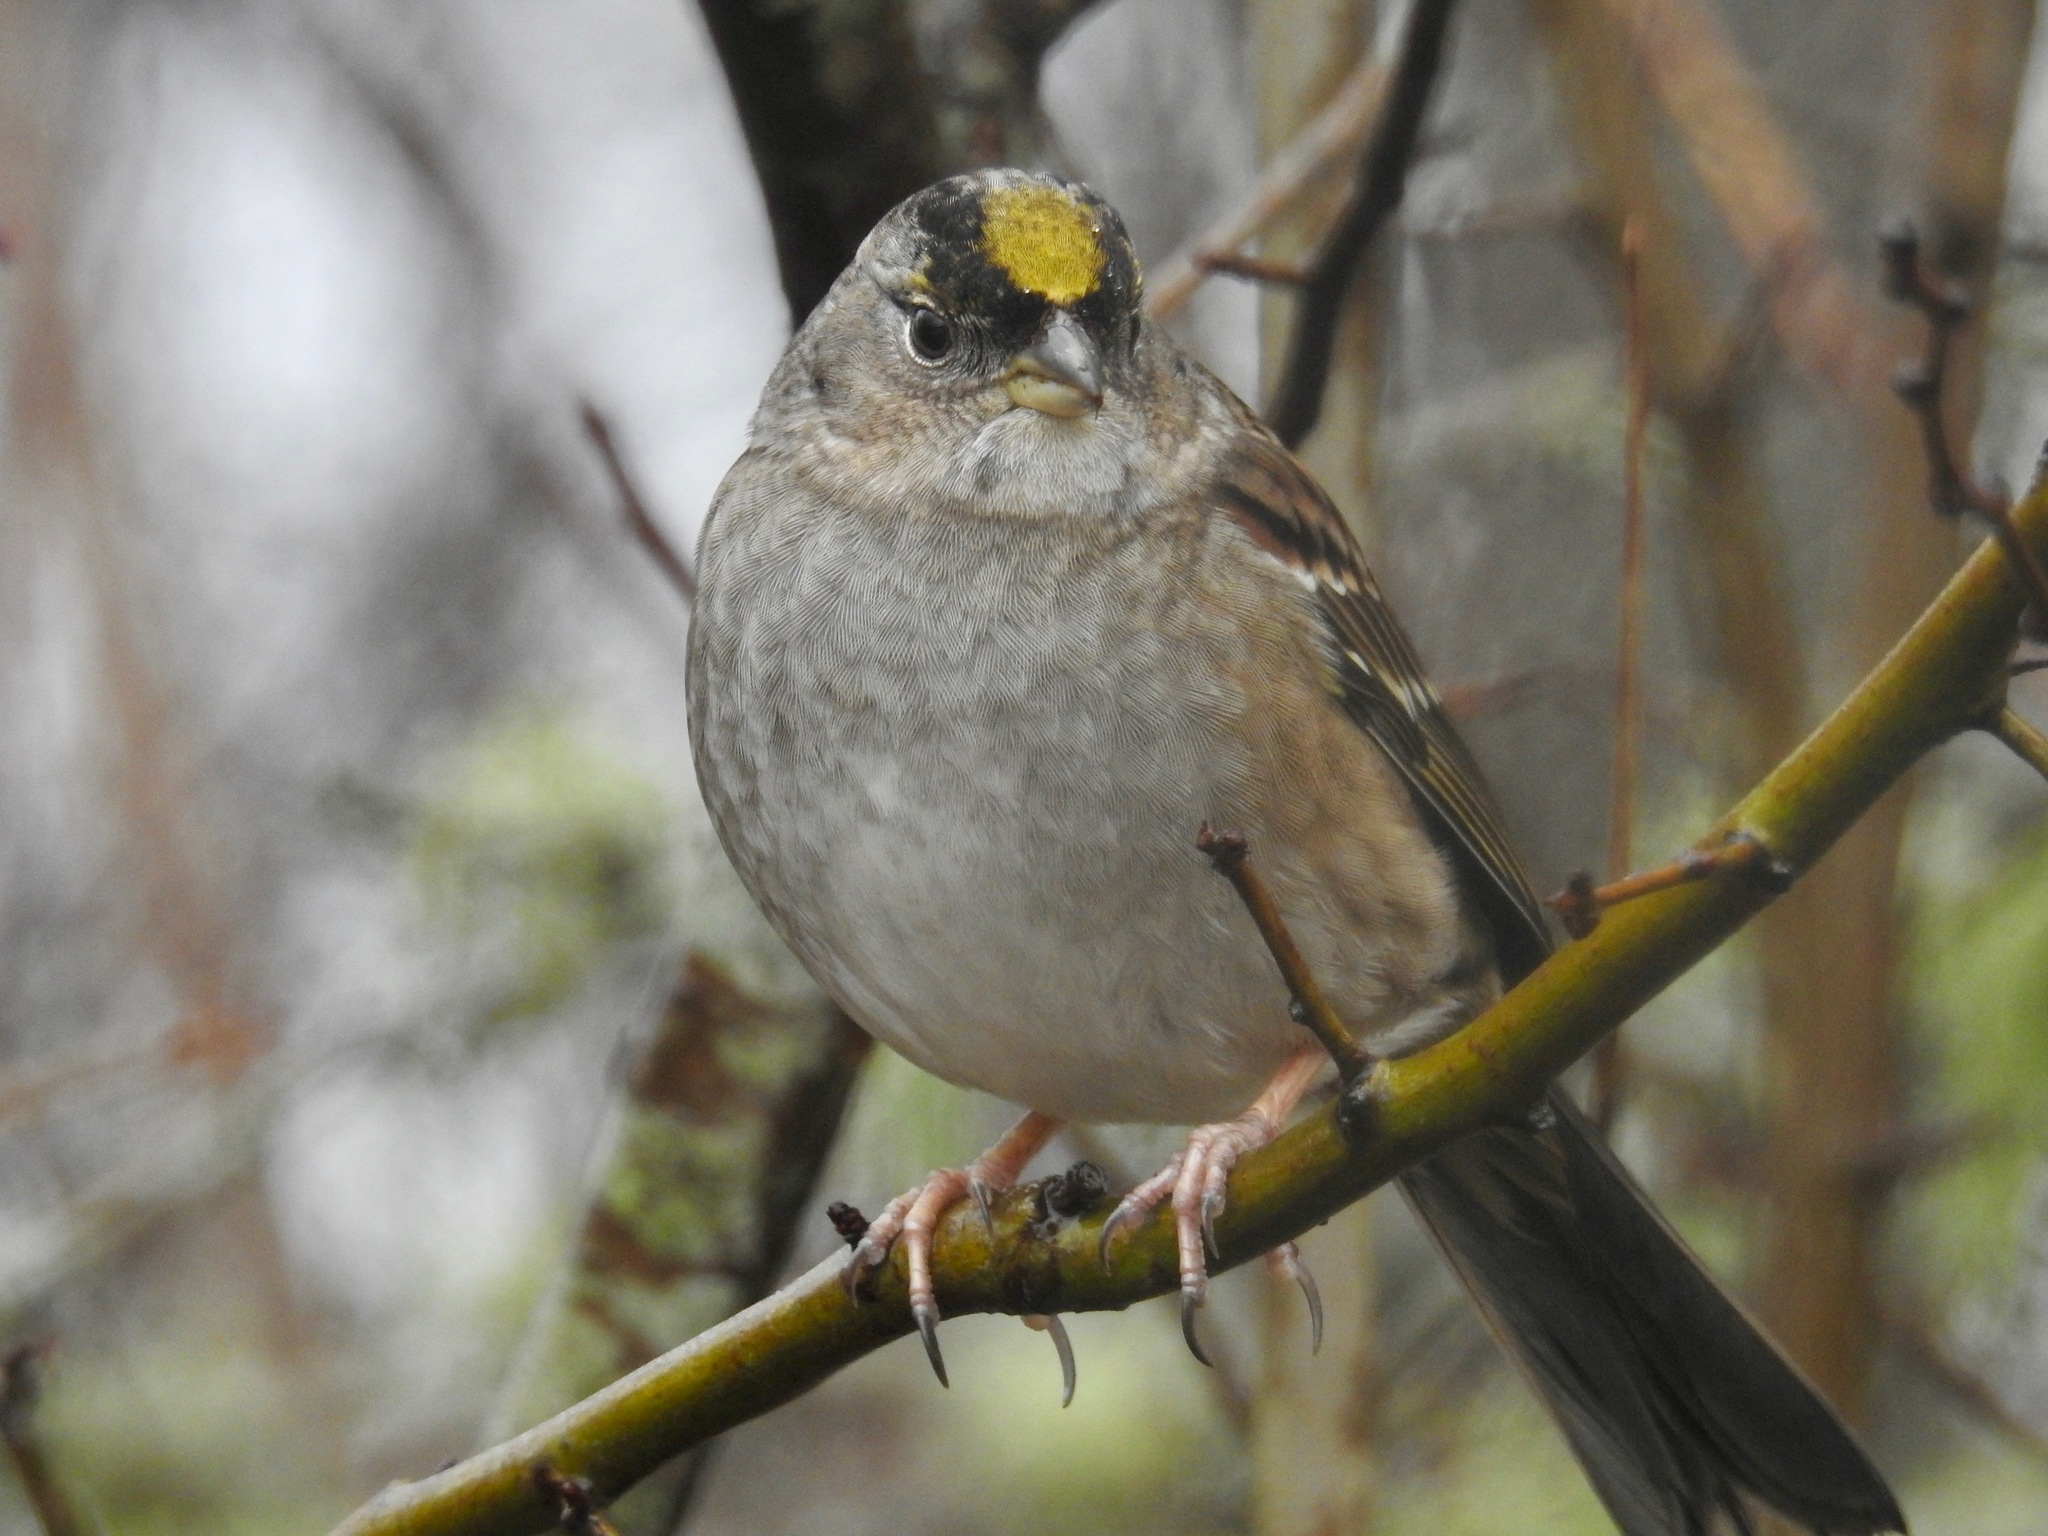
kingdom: Animalia
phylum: Chordata
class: Aves
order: Passeriformes
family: Passerellidae
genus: Zonotrichia
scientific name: Zonotrichia atricapilla
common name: Golden-crowned sparrow
